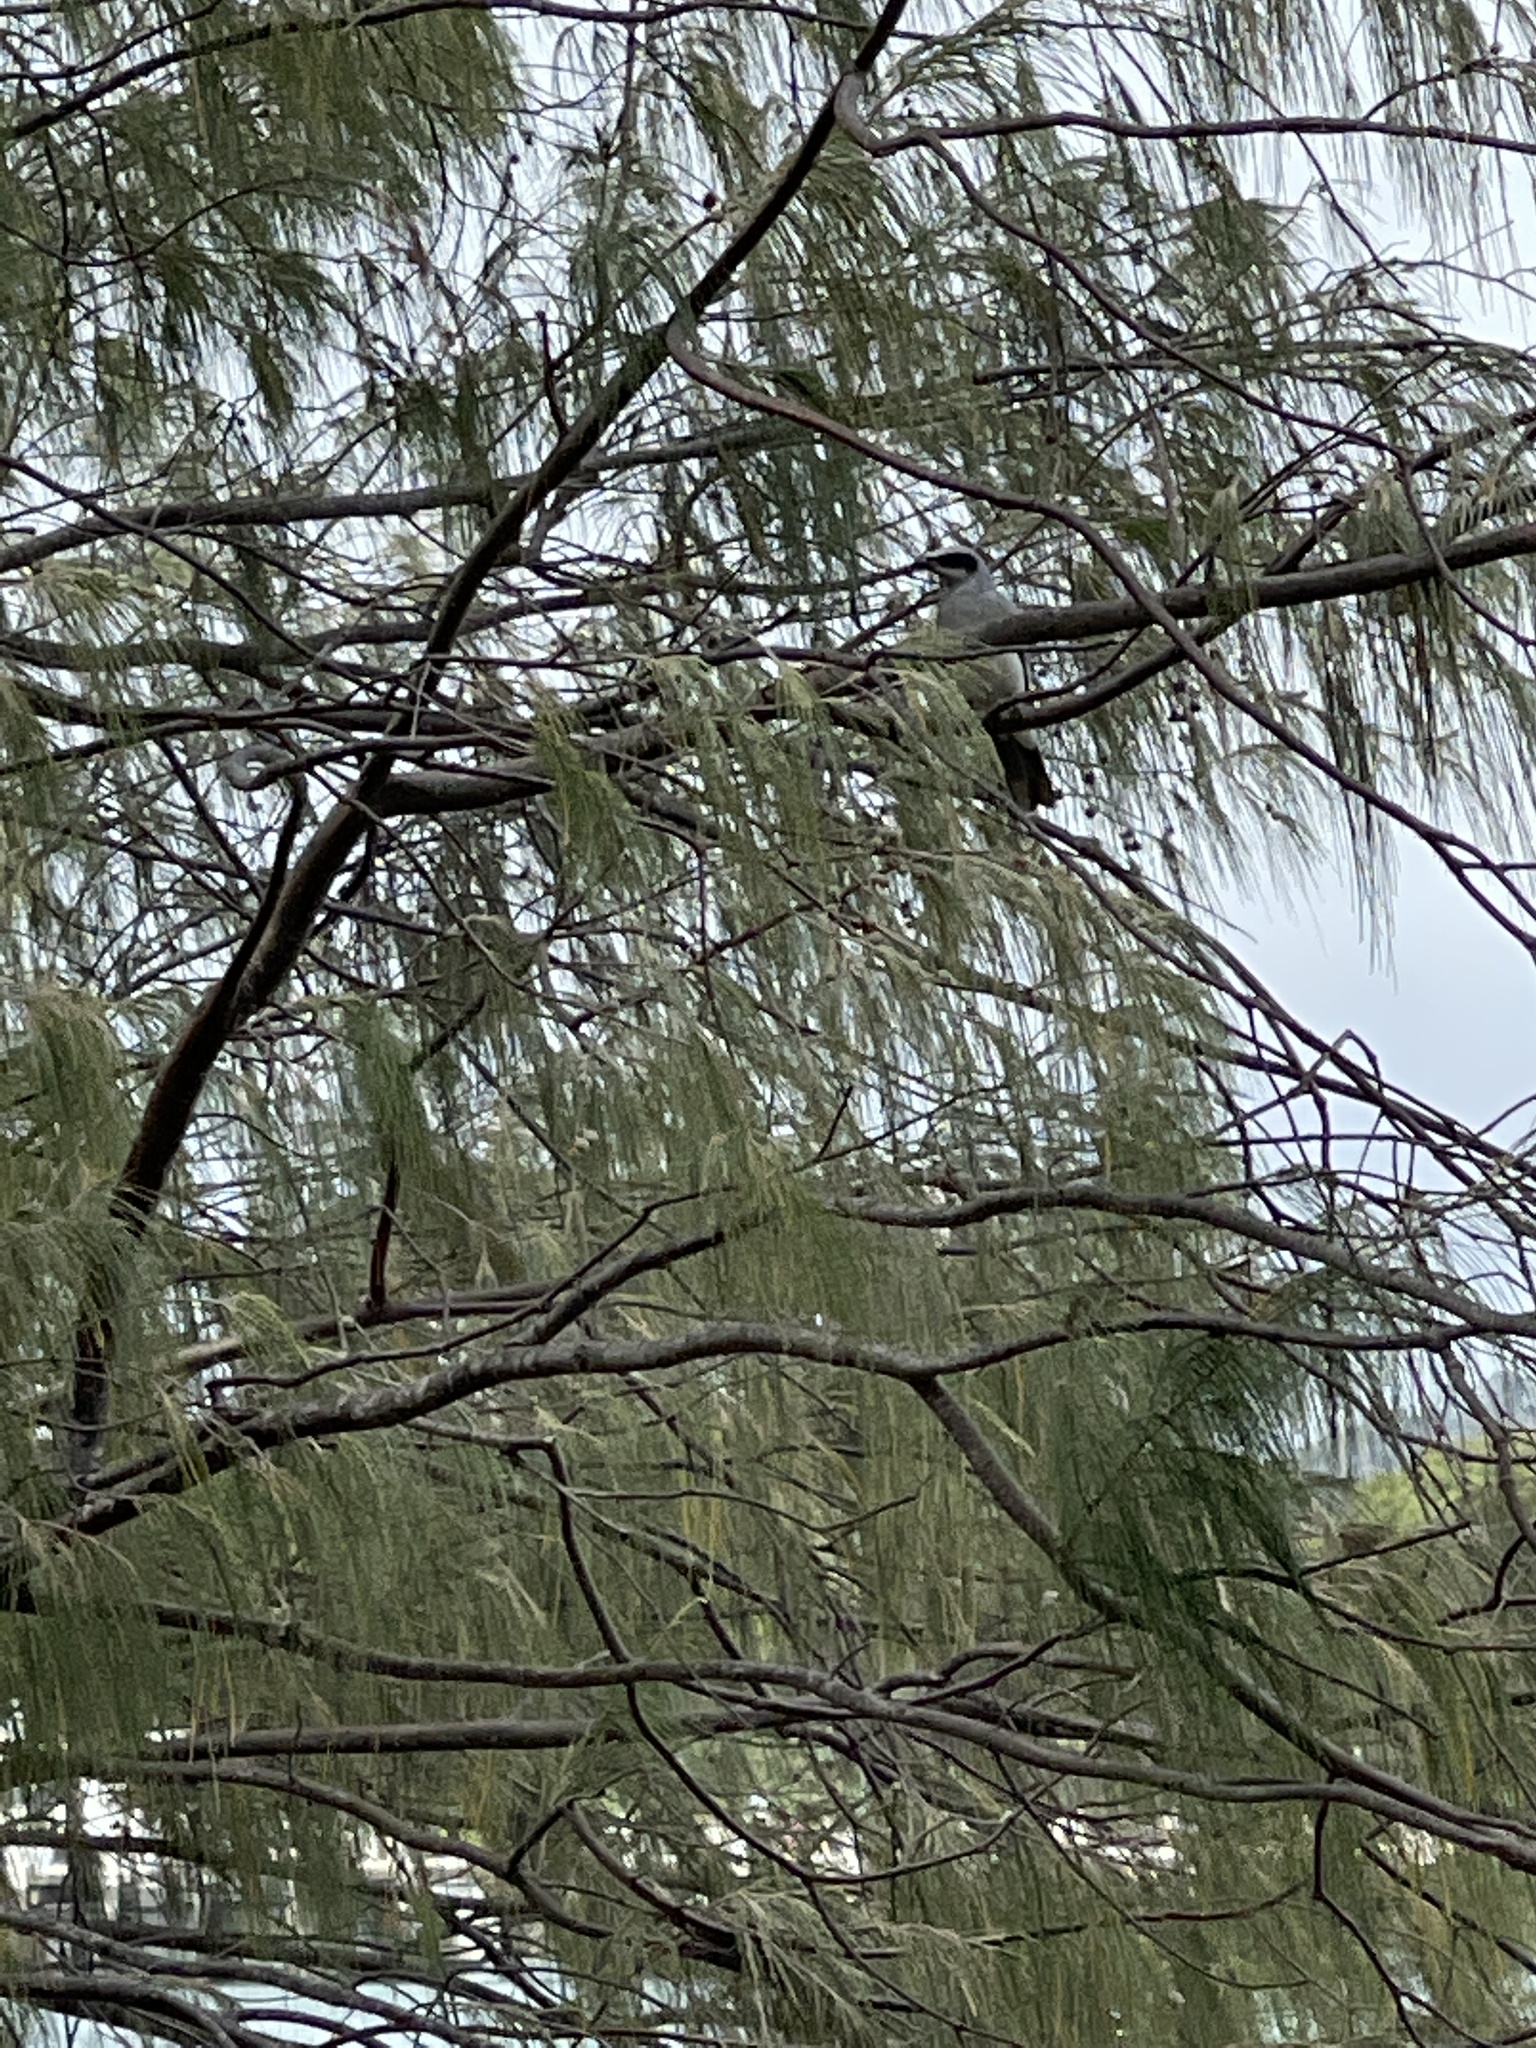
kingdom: Animalia
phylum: Chordata
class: Aves
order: Passeriformes
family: Campephagidae
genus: Coracina
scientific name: Coracina novaehollandiae
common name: Black-faced cuckooshrike
